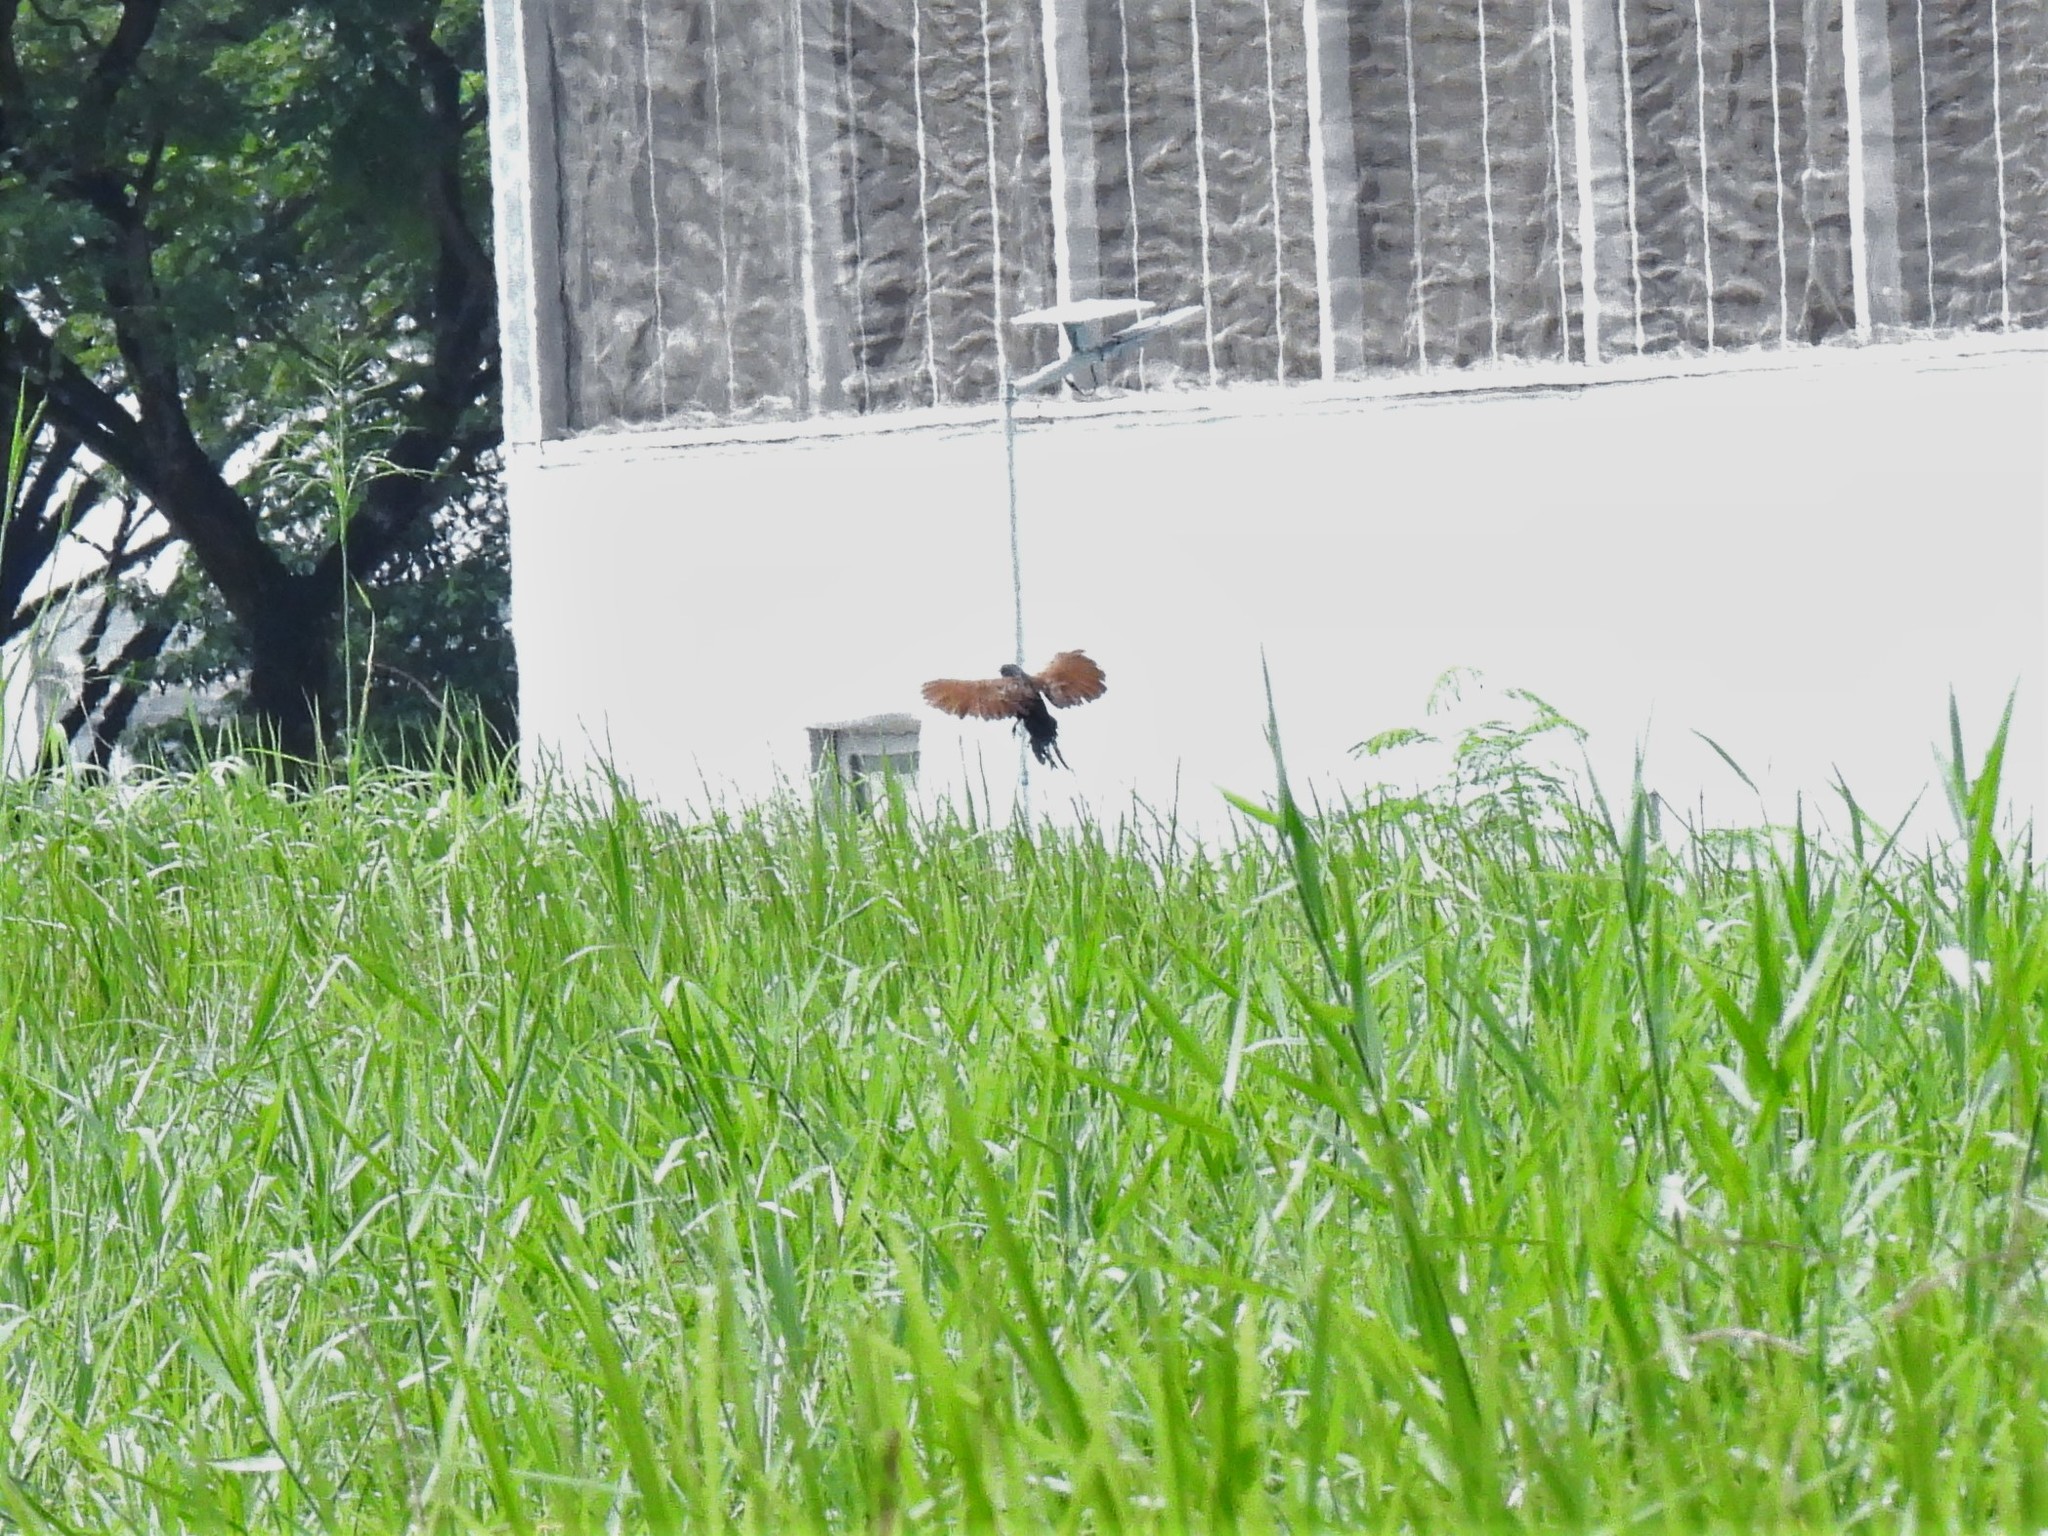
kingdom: Animalia
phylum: Chordata
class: Aves
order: Cuculiformes
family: Cuculidae
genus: Centropus
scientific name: Centropus bengalensis
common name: Lesser coucal
